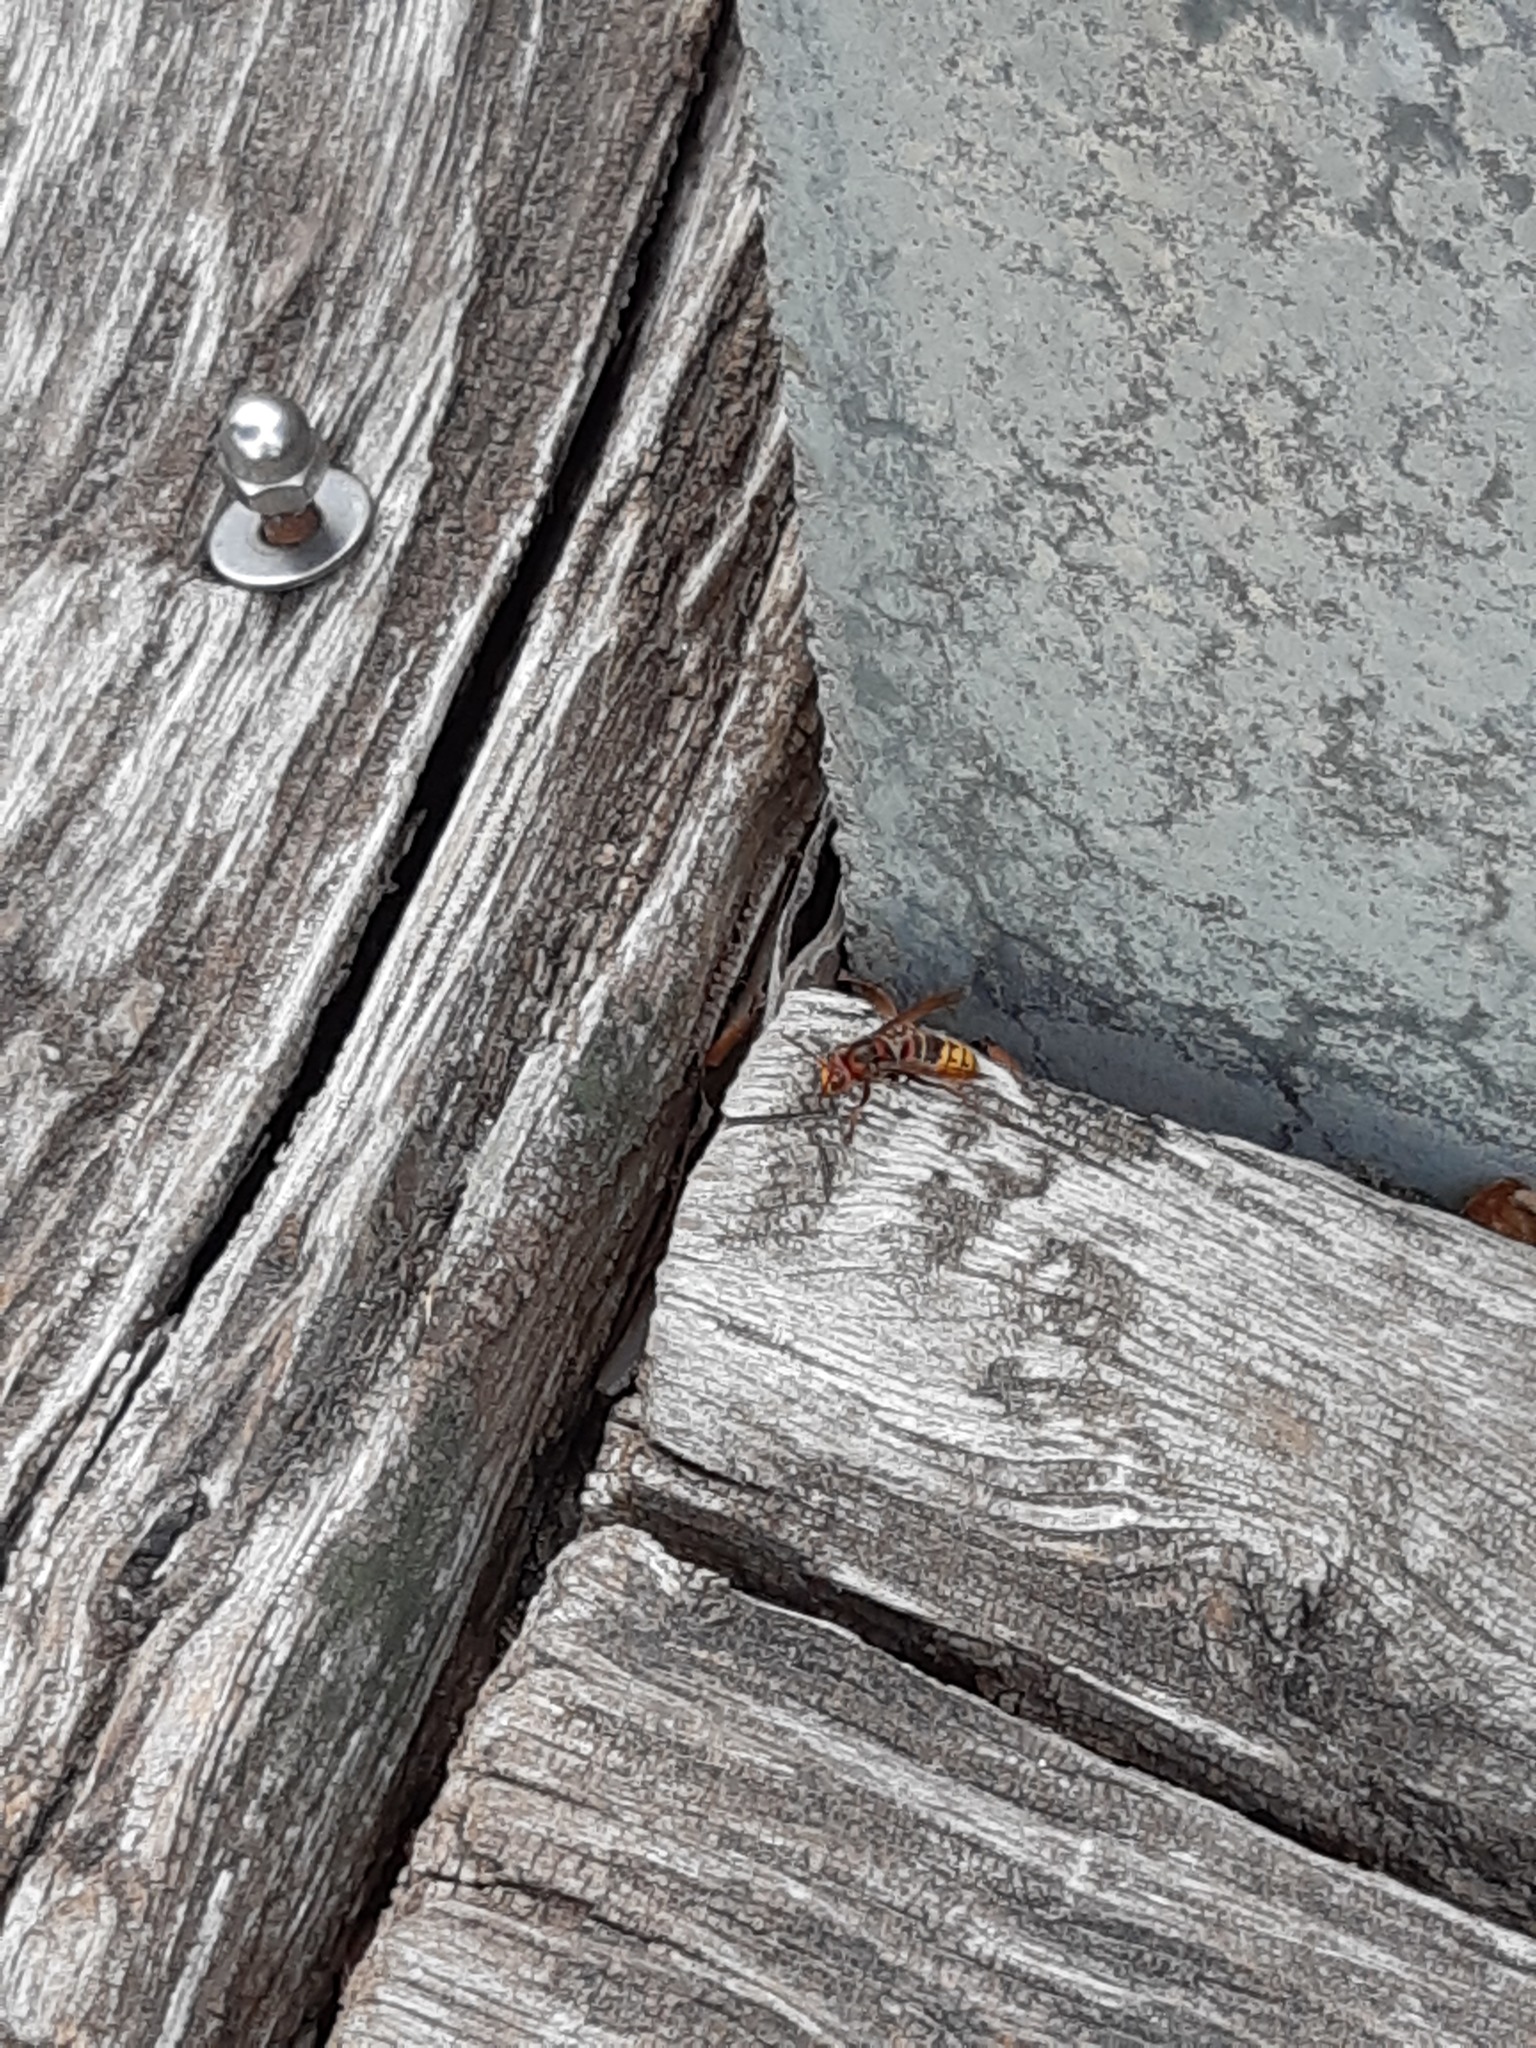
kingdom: Animalia
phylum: Arthropoda
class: Insecta
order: Hymenoptera
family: Vespidae
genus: Vespa
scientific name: Vespa crabro
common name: Hornet
